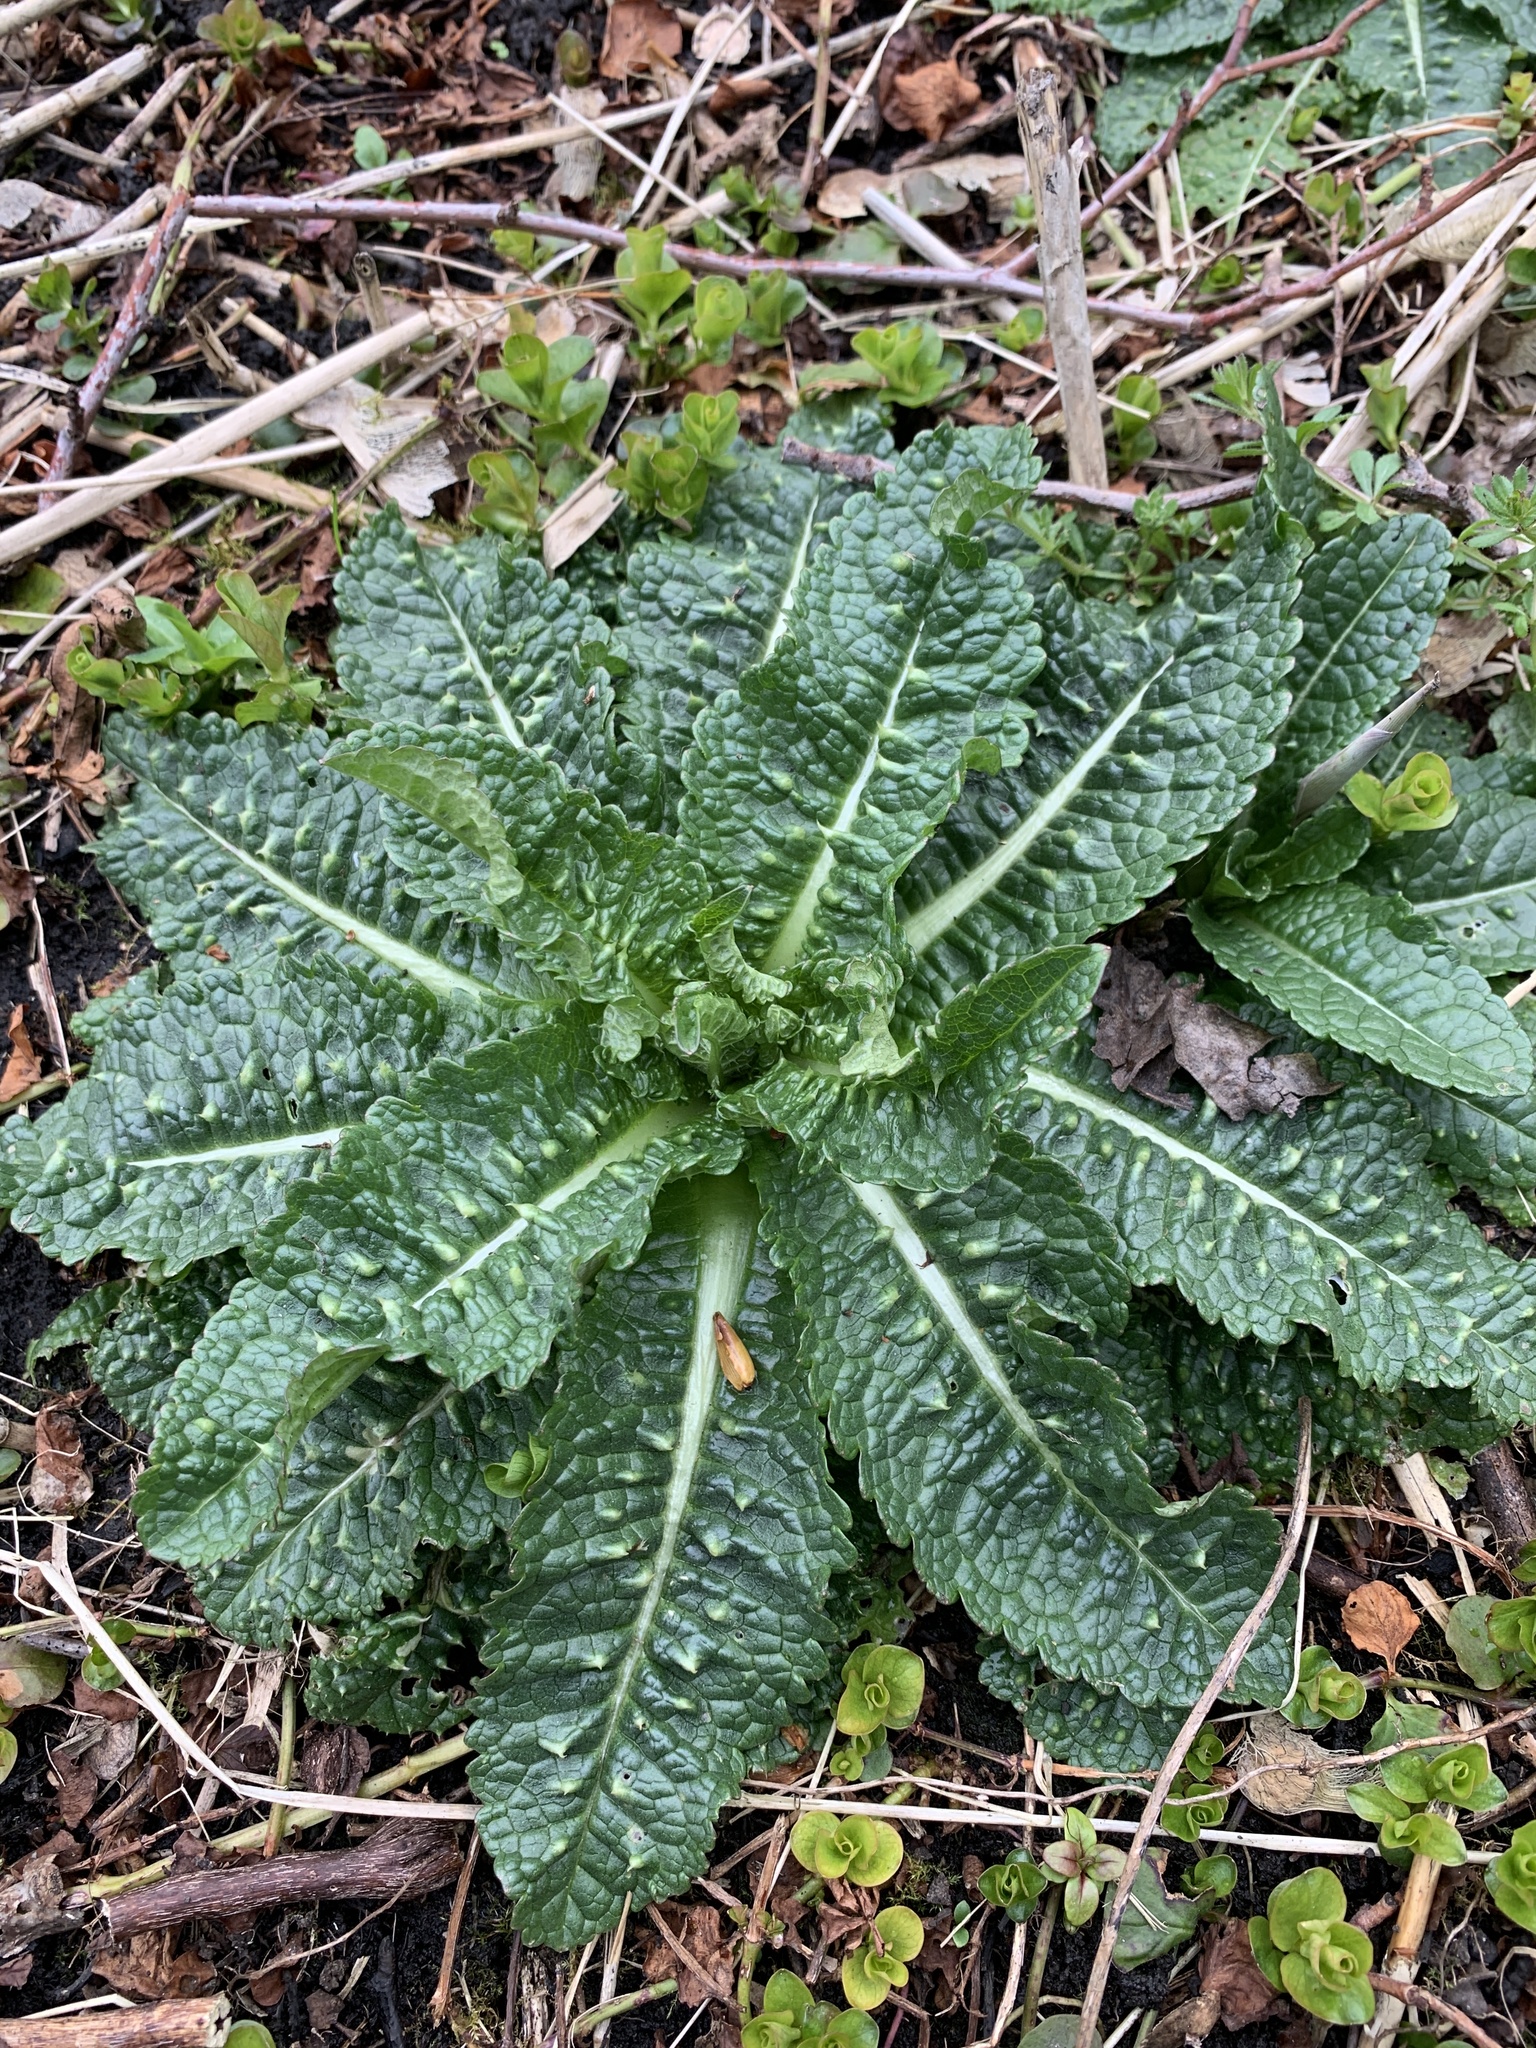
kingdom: Plantae
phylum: Tracheophyta
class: Magnoliopsida
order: Dipsacales
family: Caprifoliaceae
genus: Dipsacus
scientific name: Dipsacus fullonum
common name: Teasel
